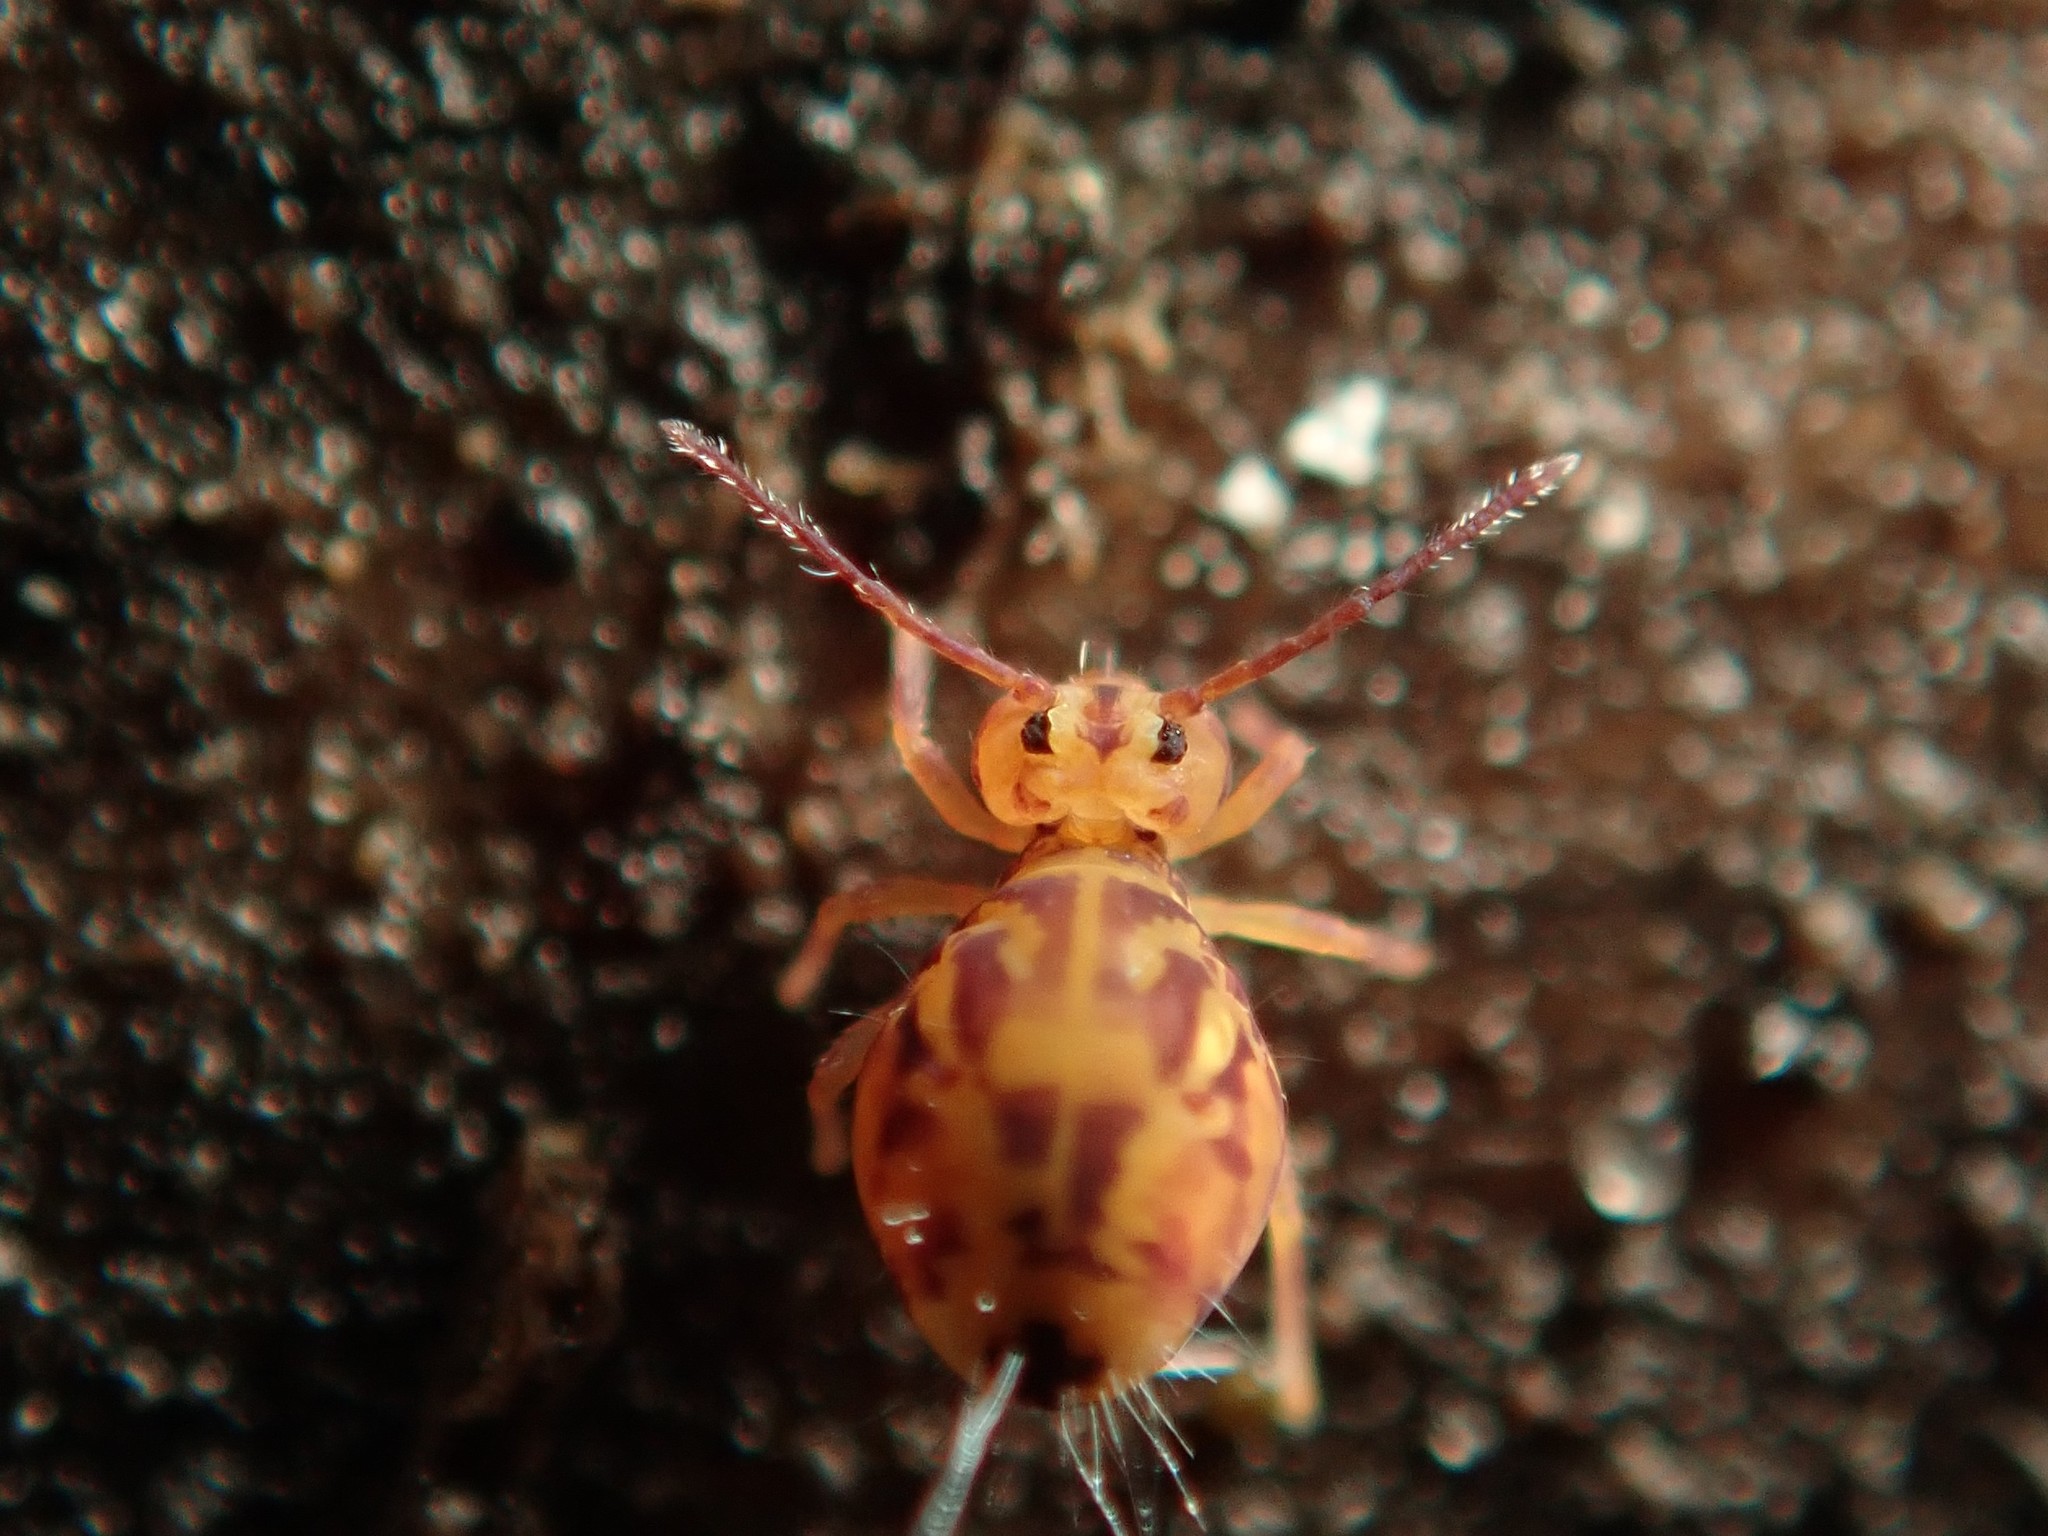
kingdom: Animalia
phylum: Arthropoda
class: Collembola
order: Symphypleona
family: Dicyrtomidae
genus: Dicyrtomina
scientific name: Dicyrtomina ornata
